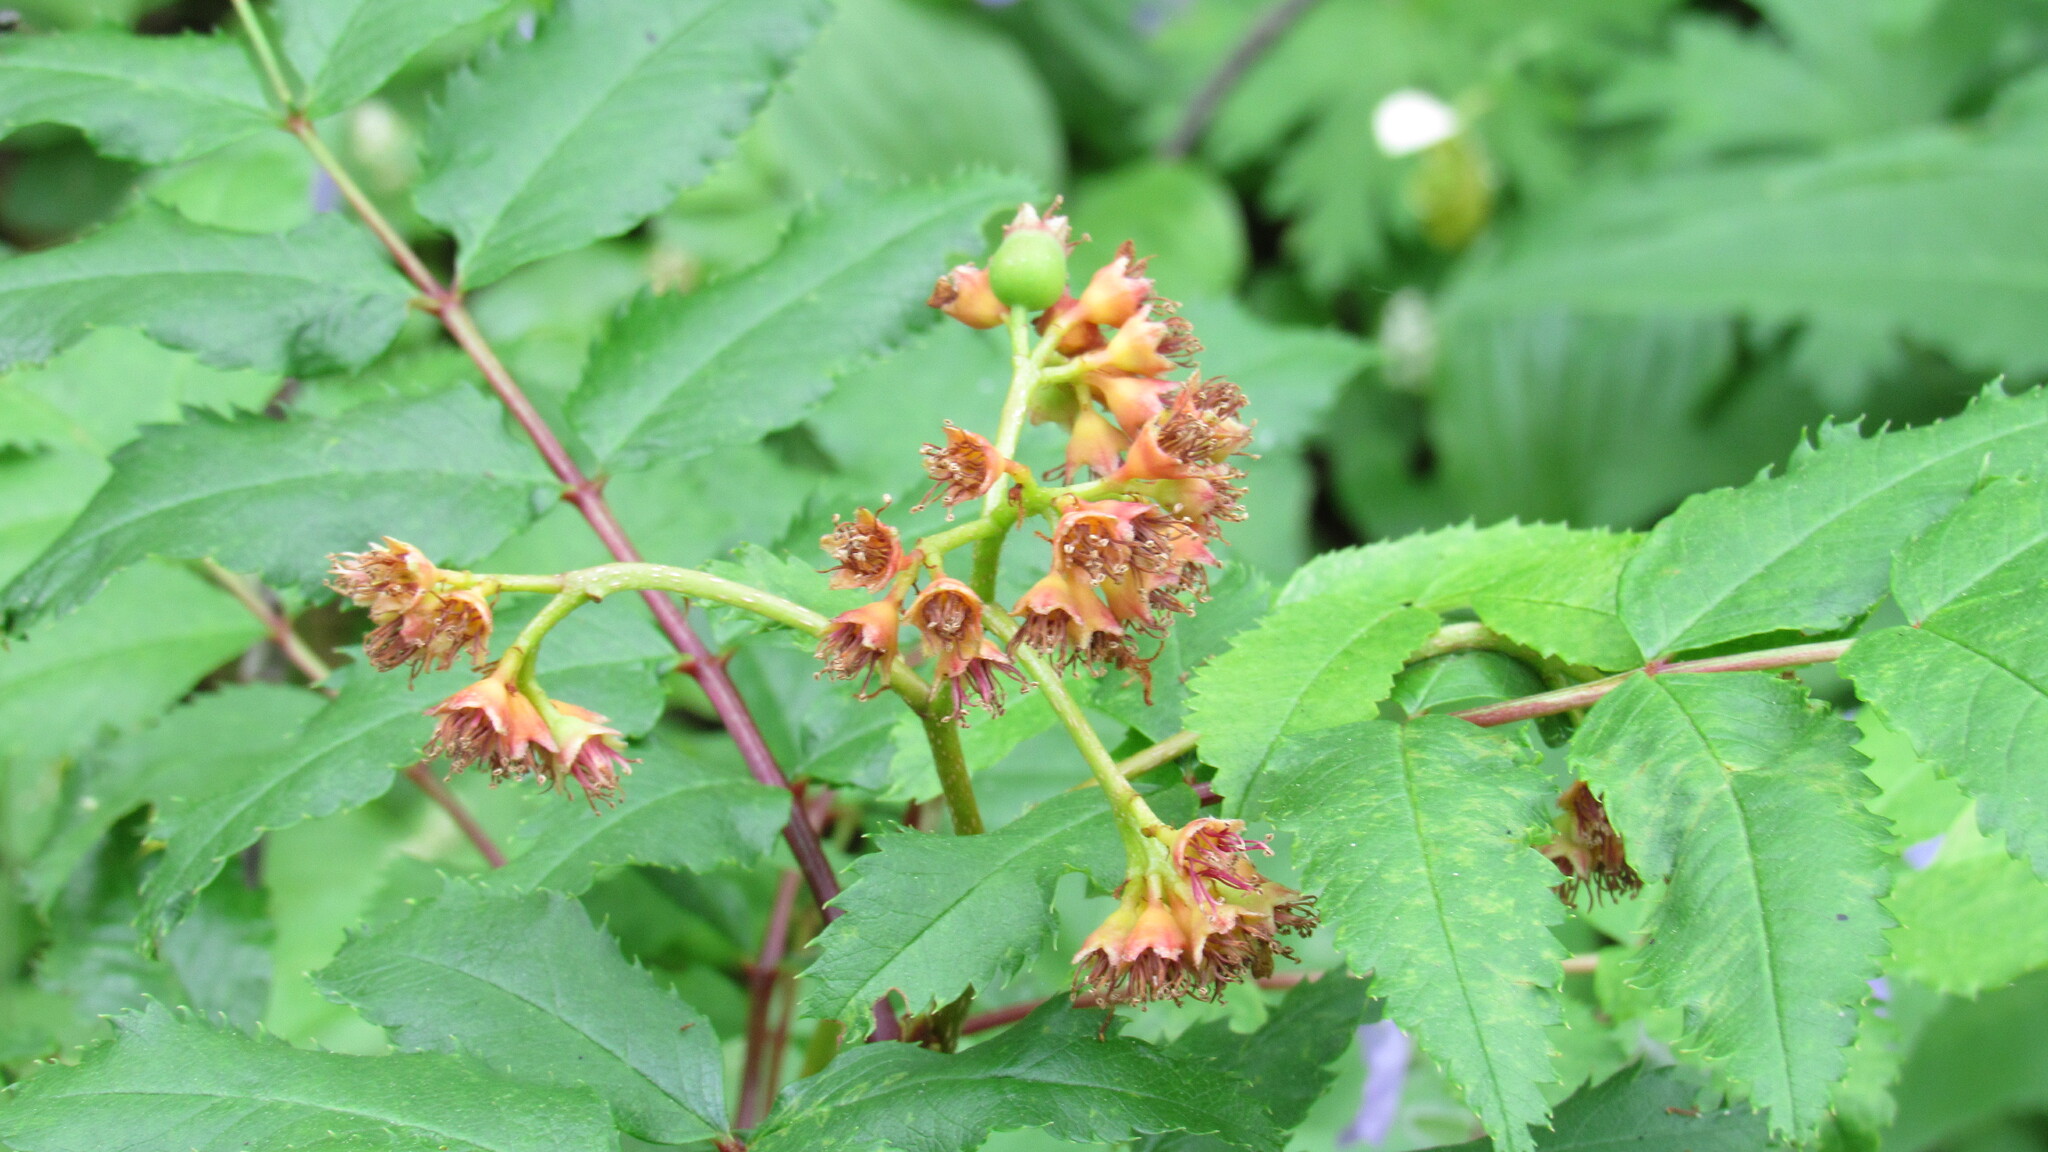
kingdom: Plantae
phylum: Tracheophyta
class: Magnoliopsida
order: Rosales
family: Rosaceae
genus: Sorbus
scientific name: Sorbus sambucifolia
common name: Siberian mountain-ash
